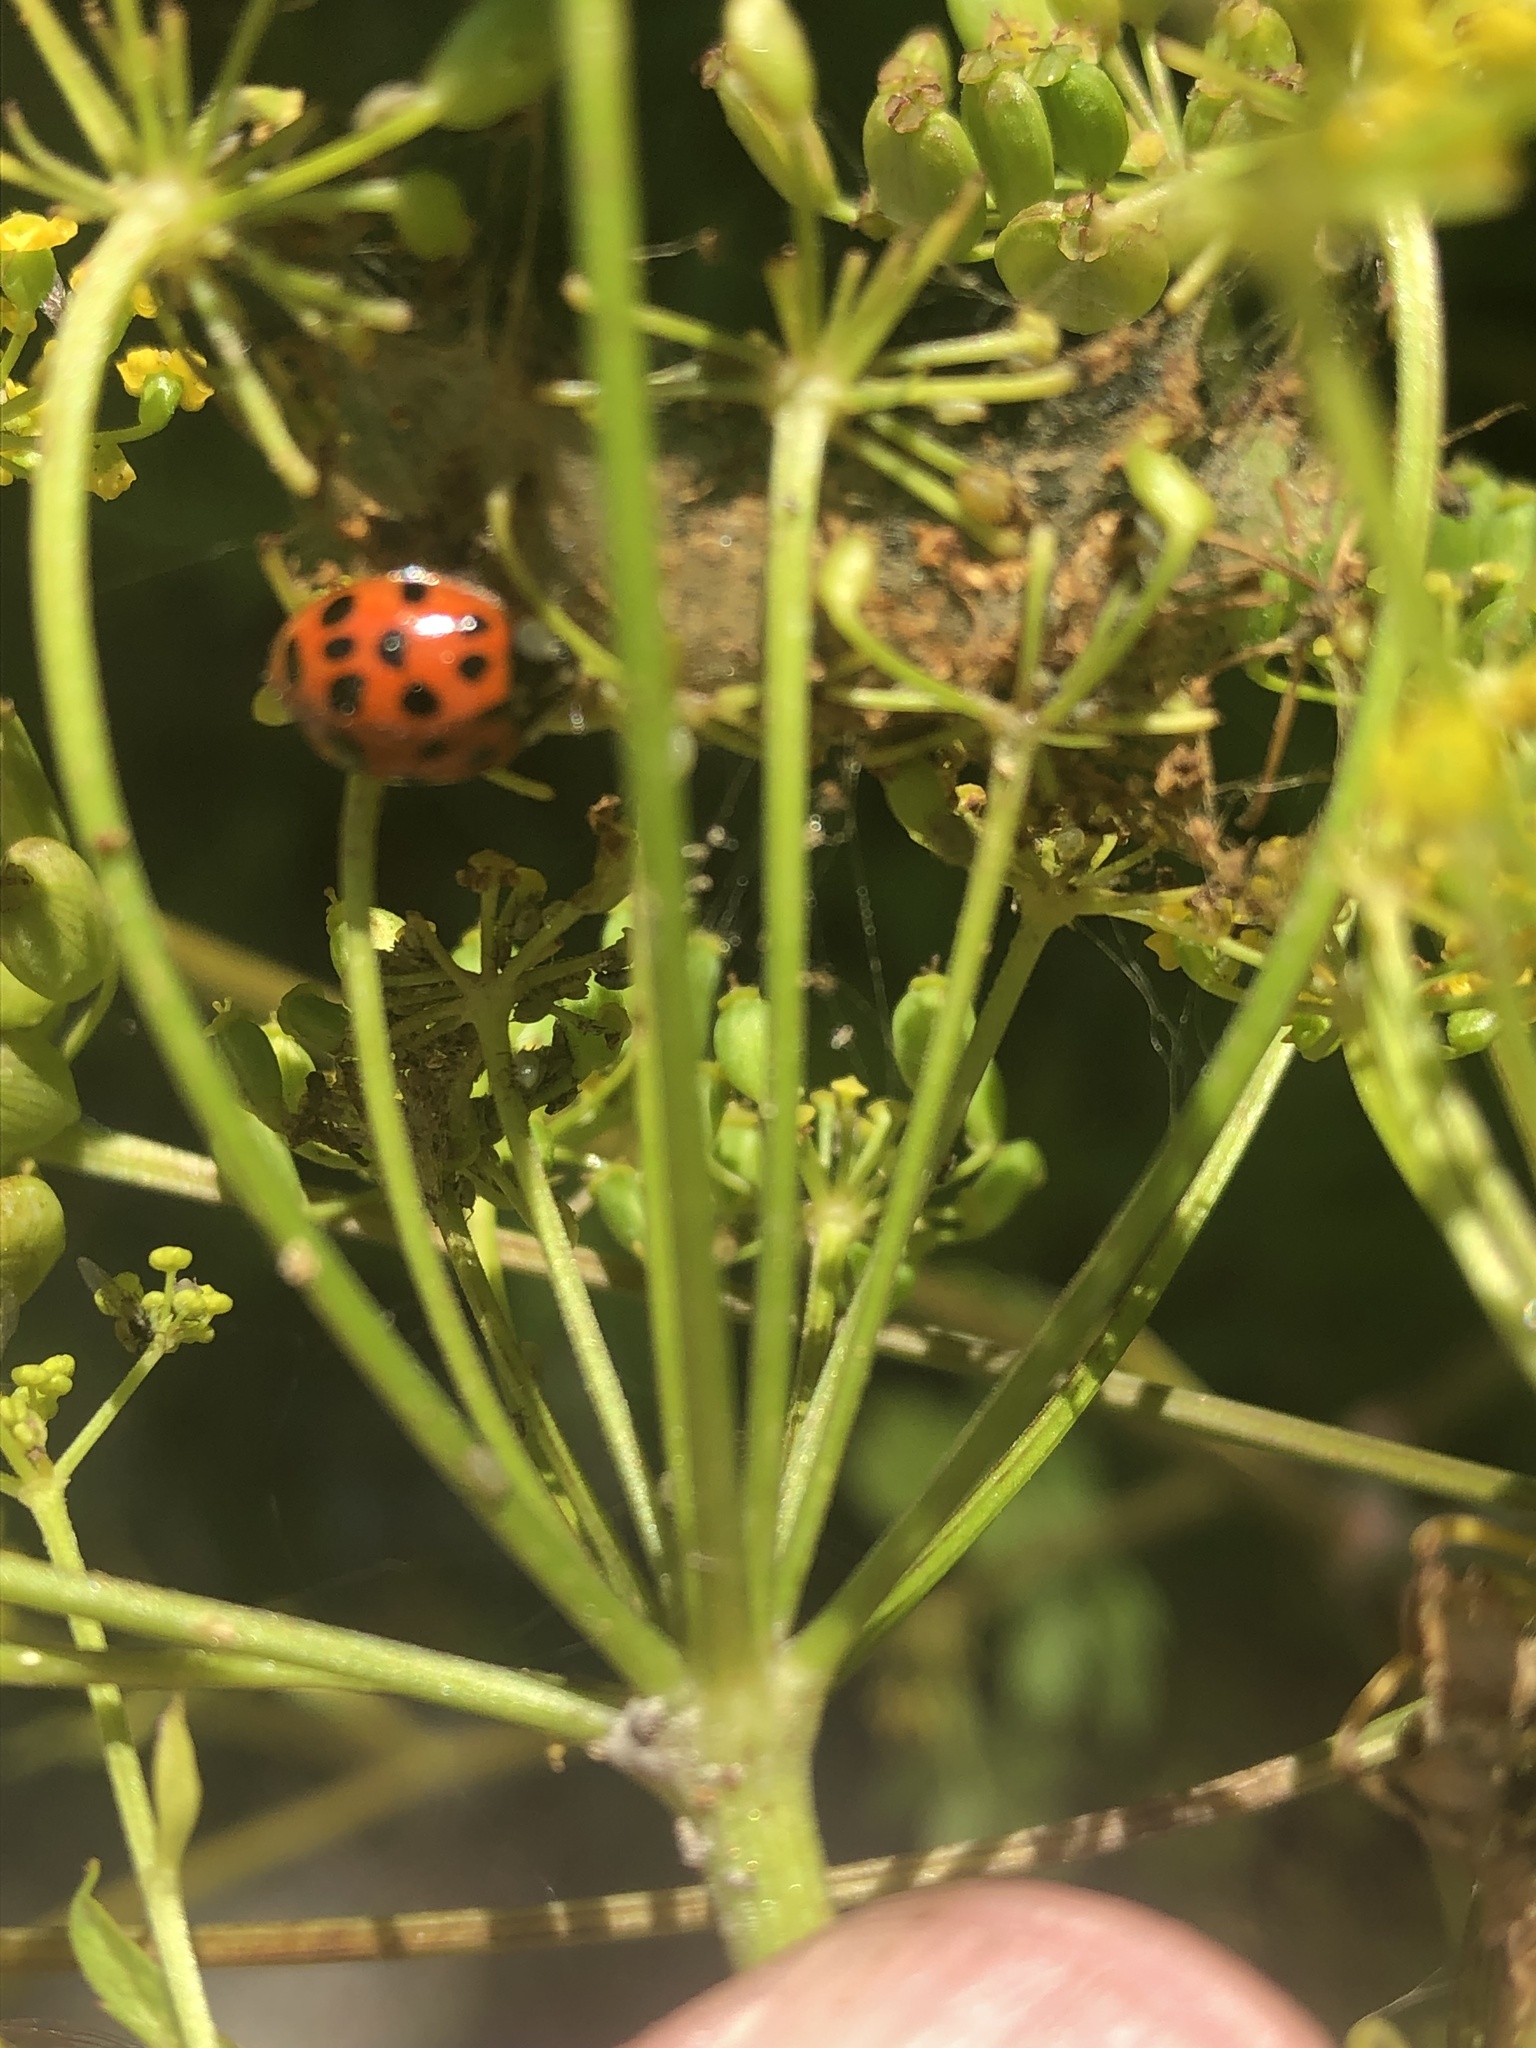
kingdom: Animalia
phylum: Arthropoda
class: Insecta
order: Coleoptera
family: Coccinellidae
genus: Harmonia
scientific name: Harmonia axyridis
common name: Harlequin ladybird
